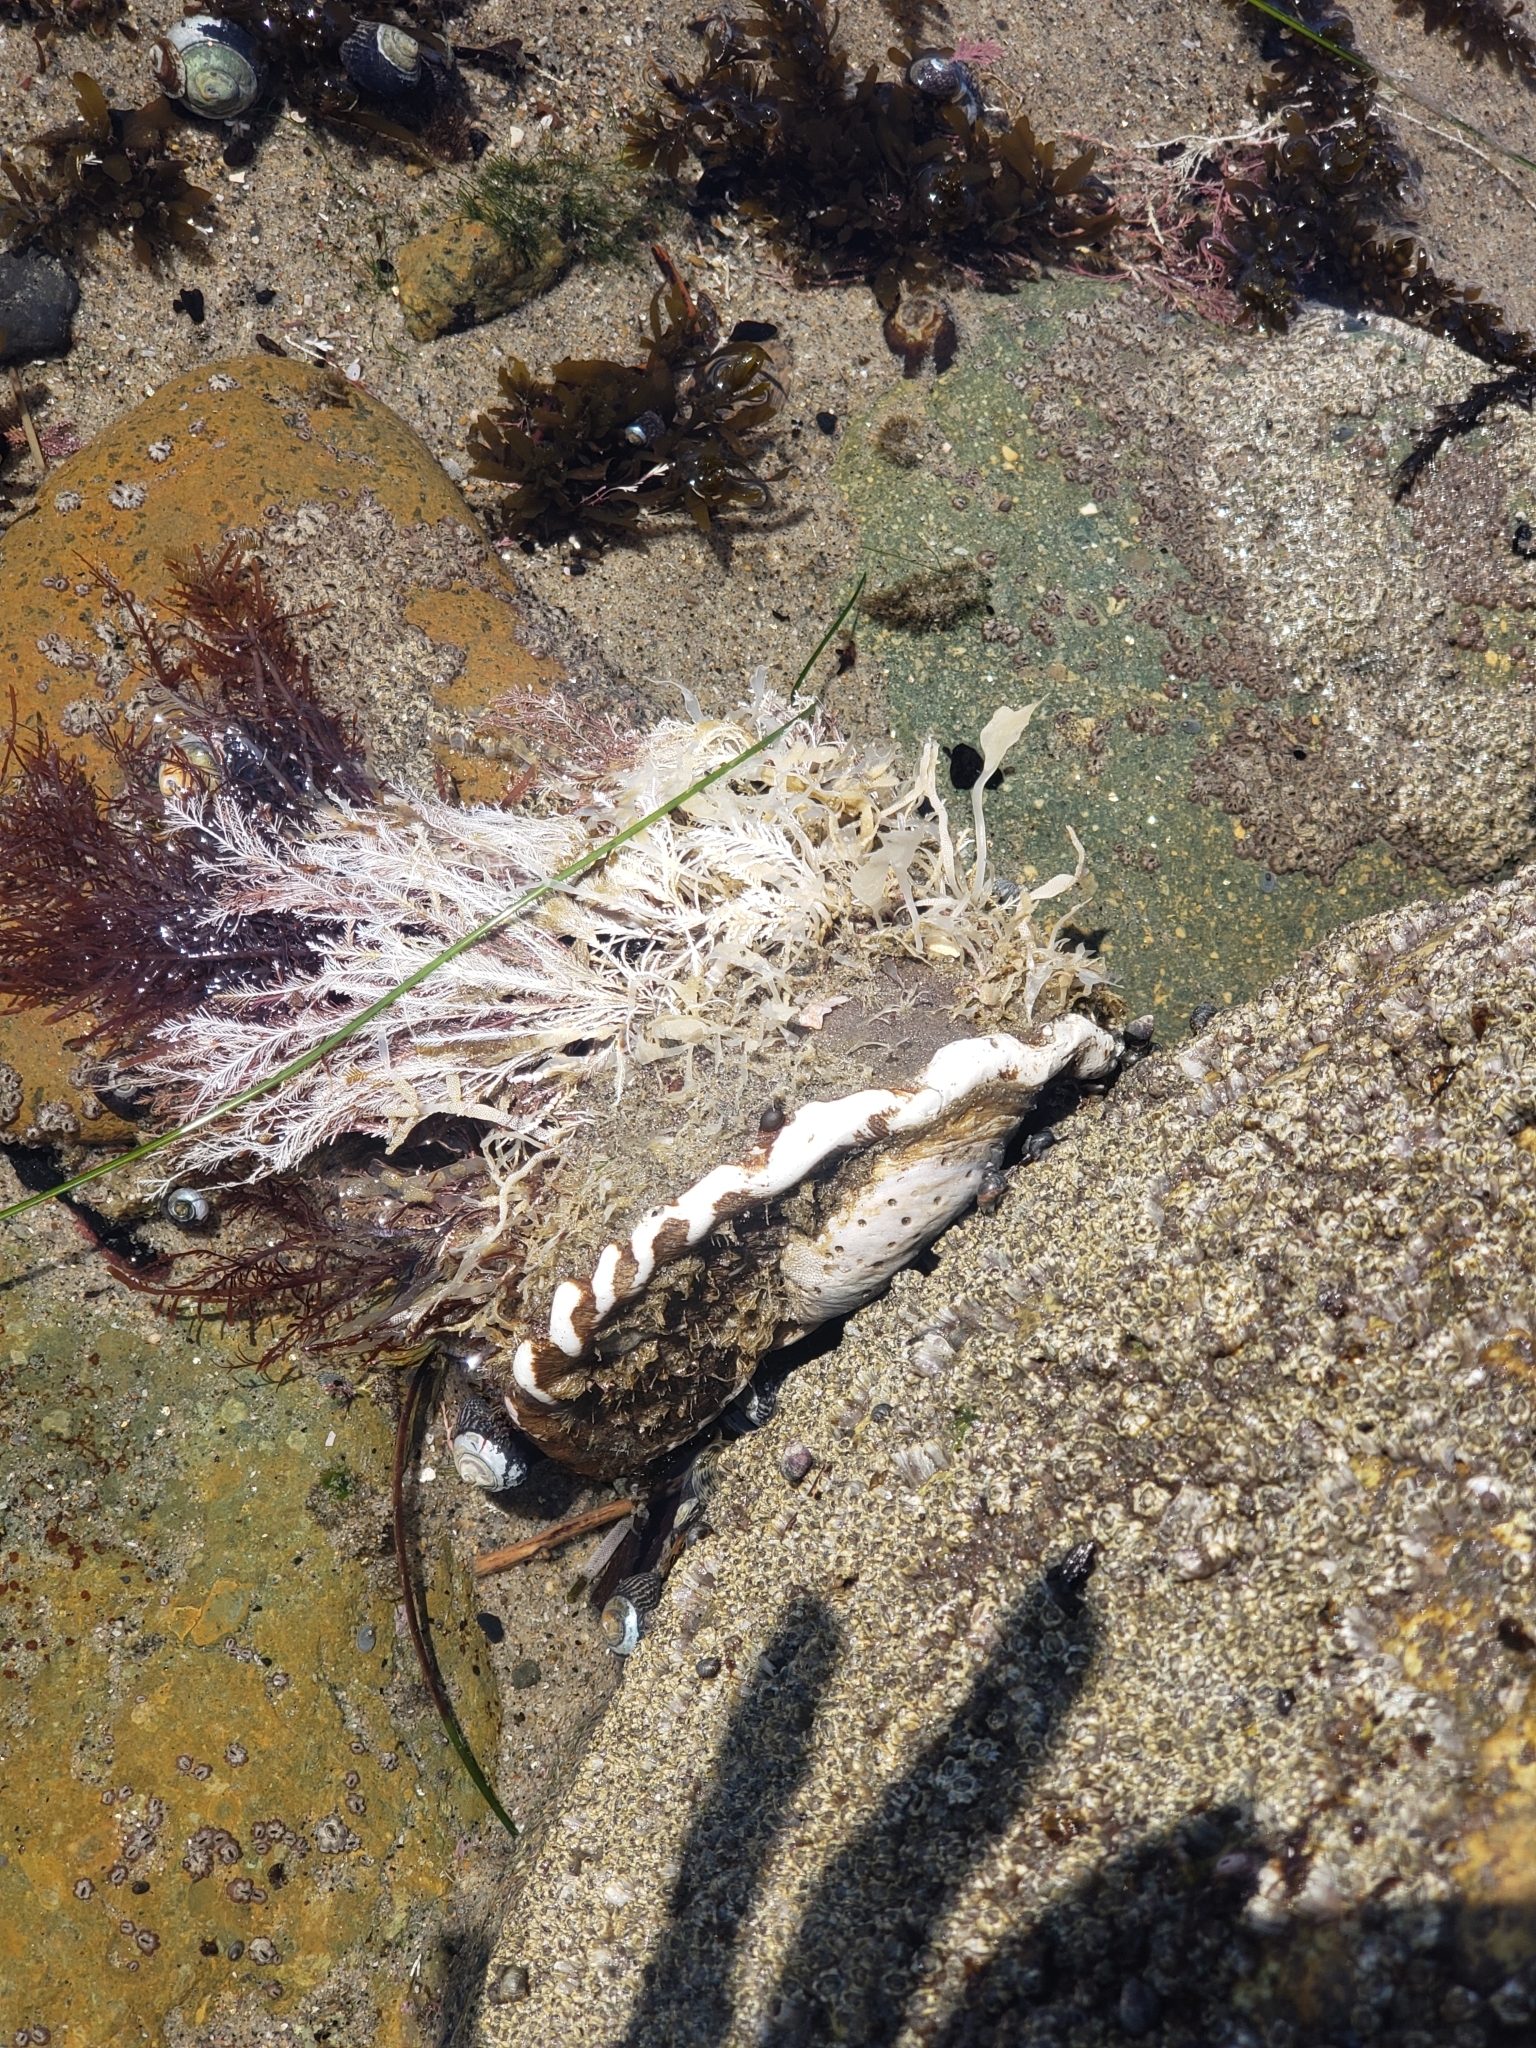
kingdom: Animalia
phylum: Mollusca
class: Gastropoda
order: Trochida
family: Turbinidae
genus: Megastraea
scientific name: Megastraea undosa
